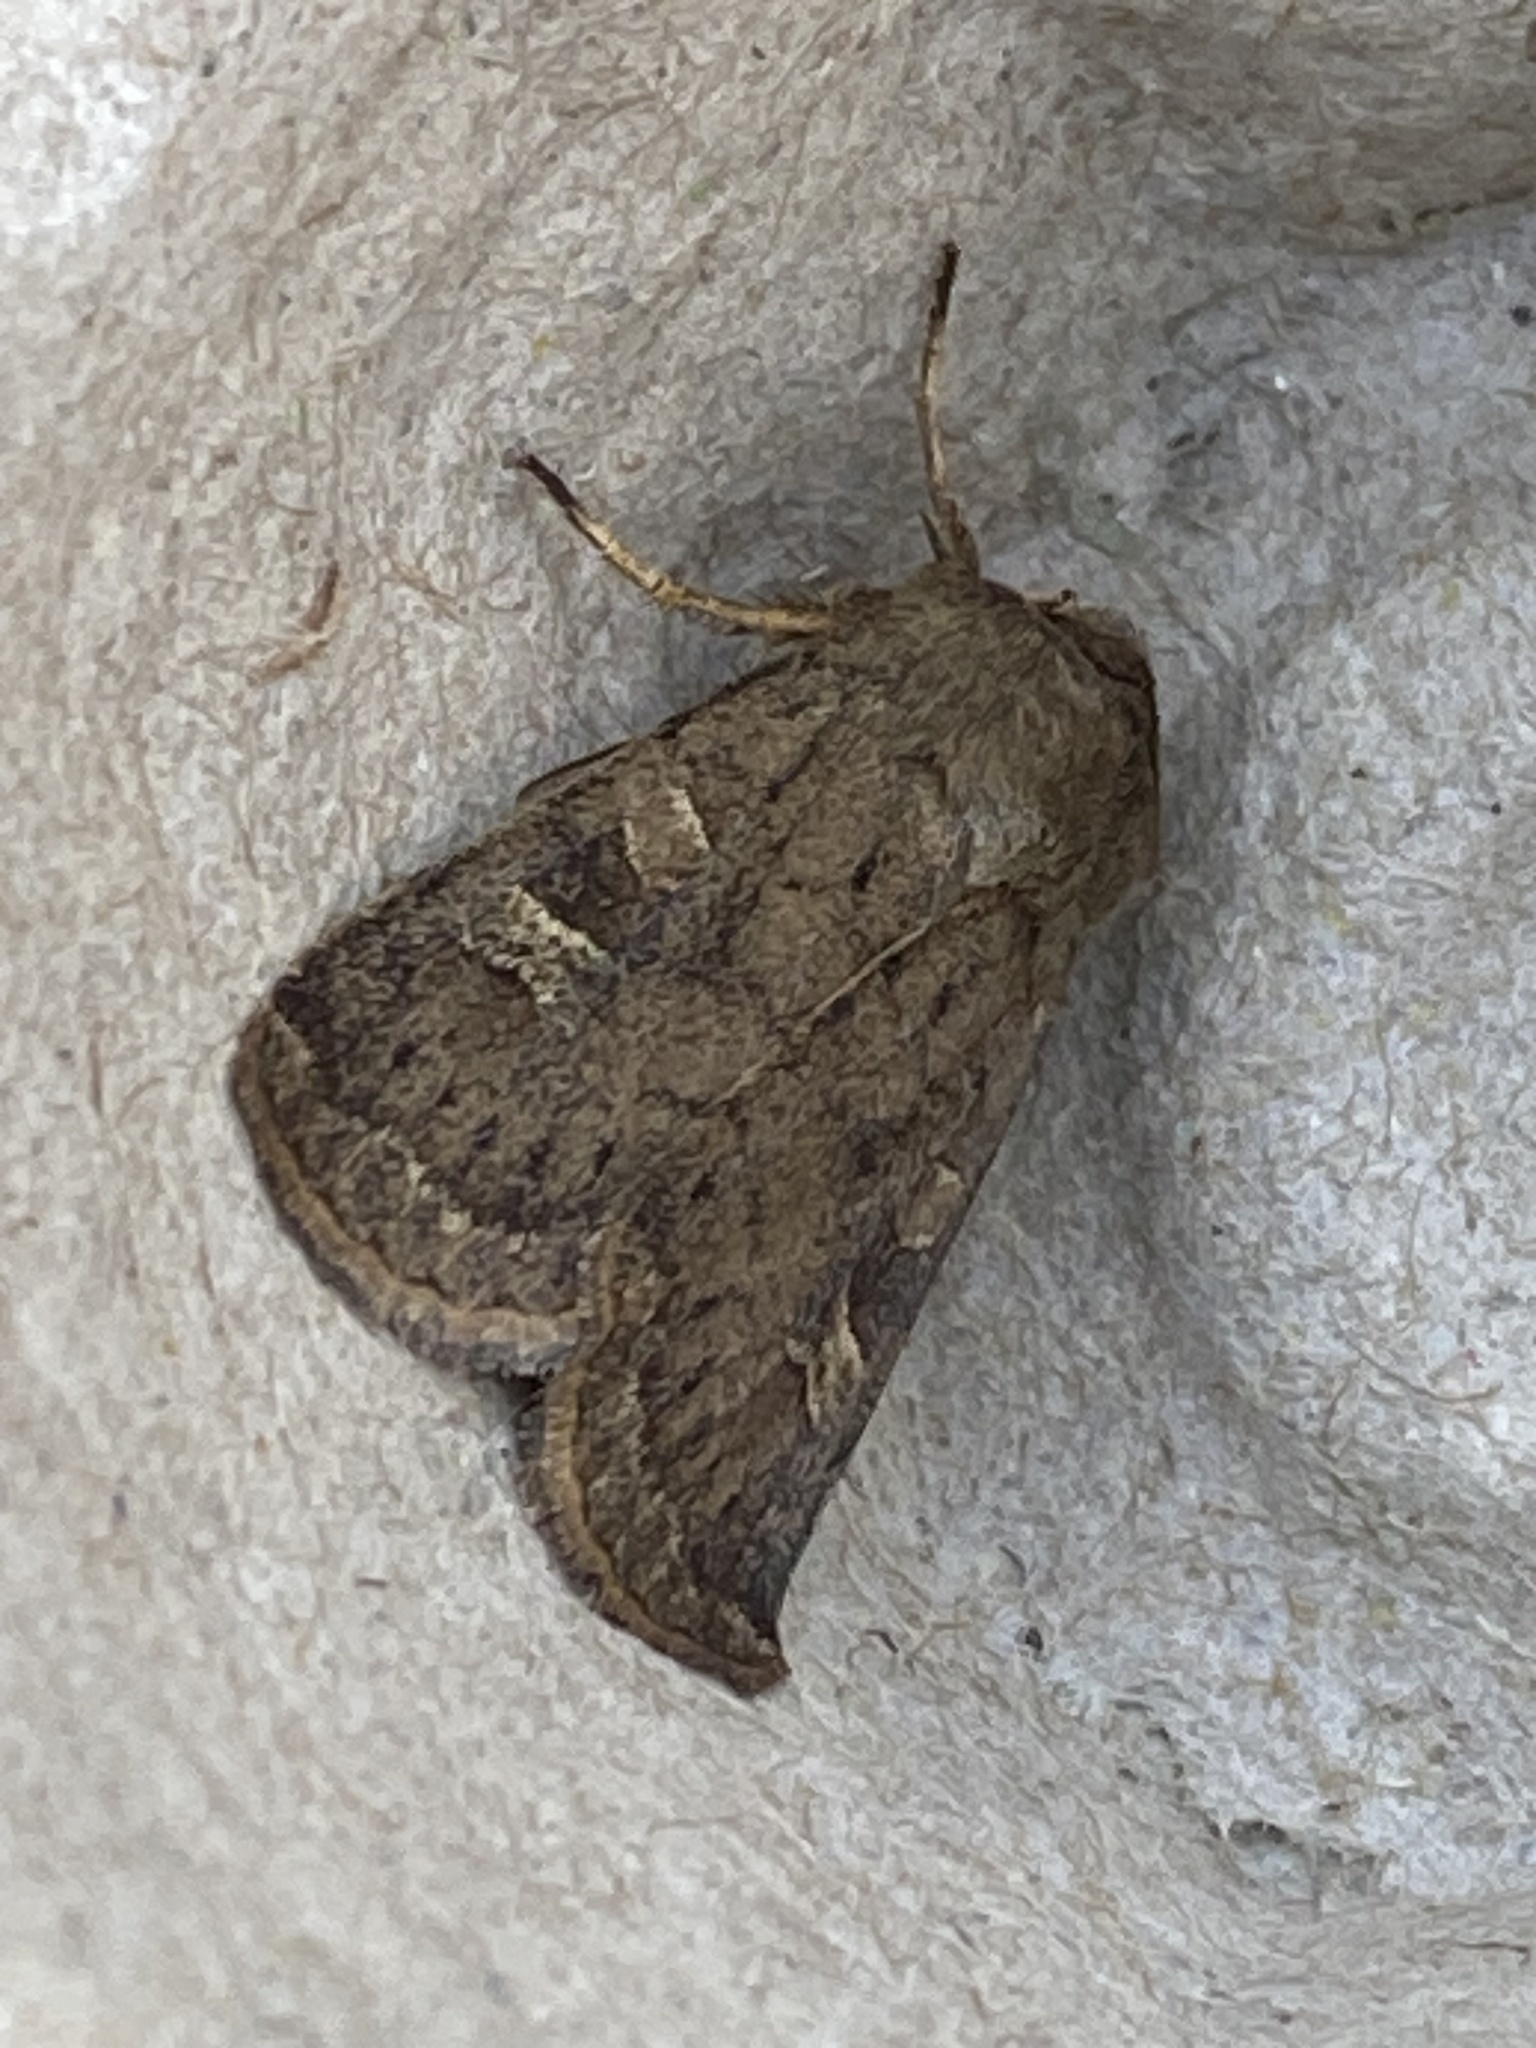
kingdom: Animalia
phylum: Arthropoda
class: Insecta
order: Lepidoptera
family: Noctuidae
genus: Xestia
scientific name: Xestia xanthographa
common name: Square-spot rustic
